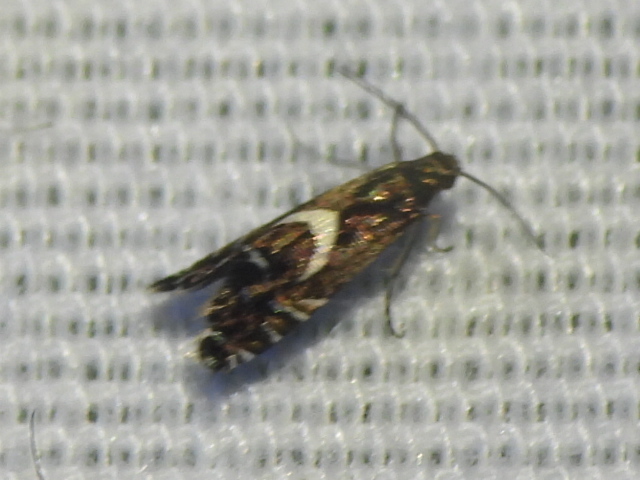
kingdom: Animalia
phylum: Arthropoda
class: Insecta
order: Lepidoptera
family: Glyphipterigidae
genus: Glyphipterix
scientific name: Glyphipterix Diploschizia impigritella
